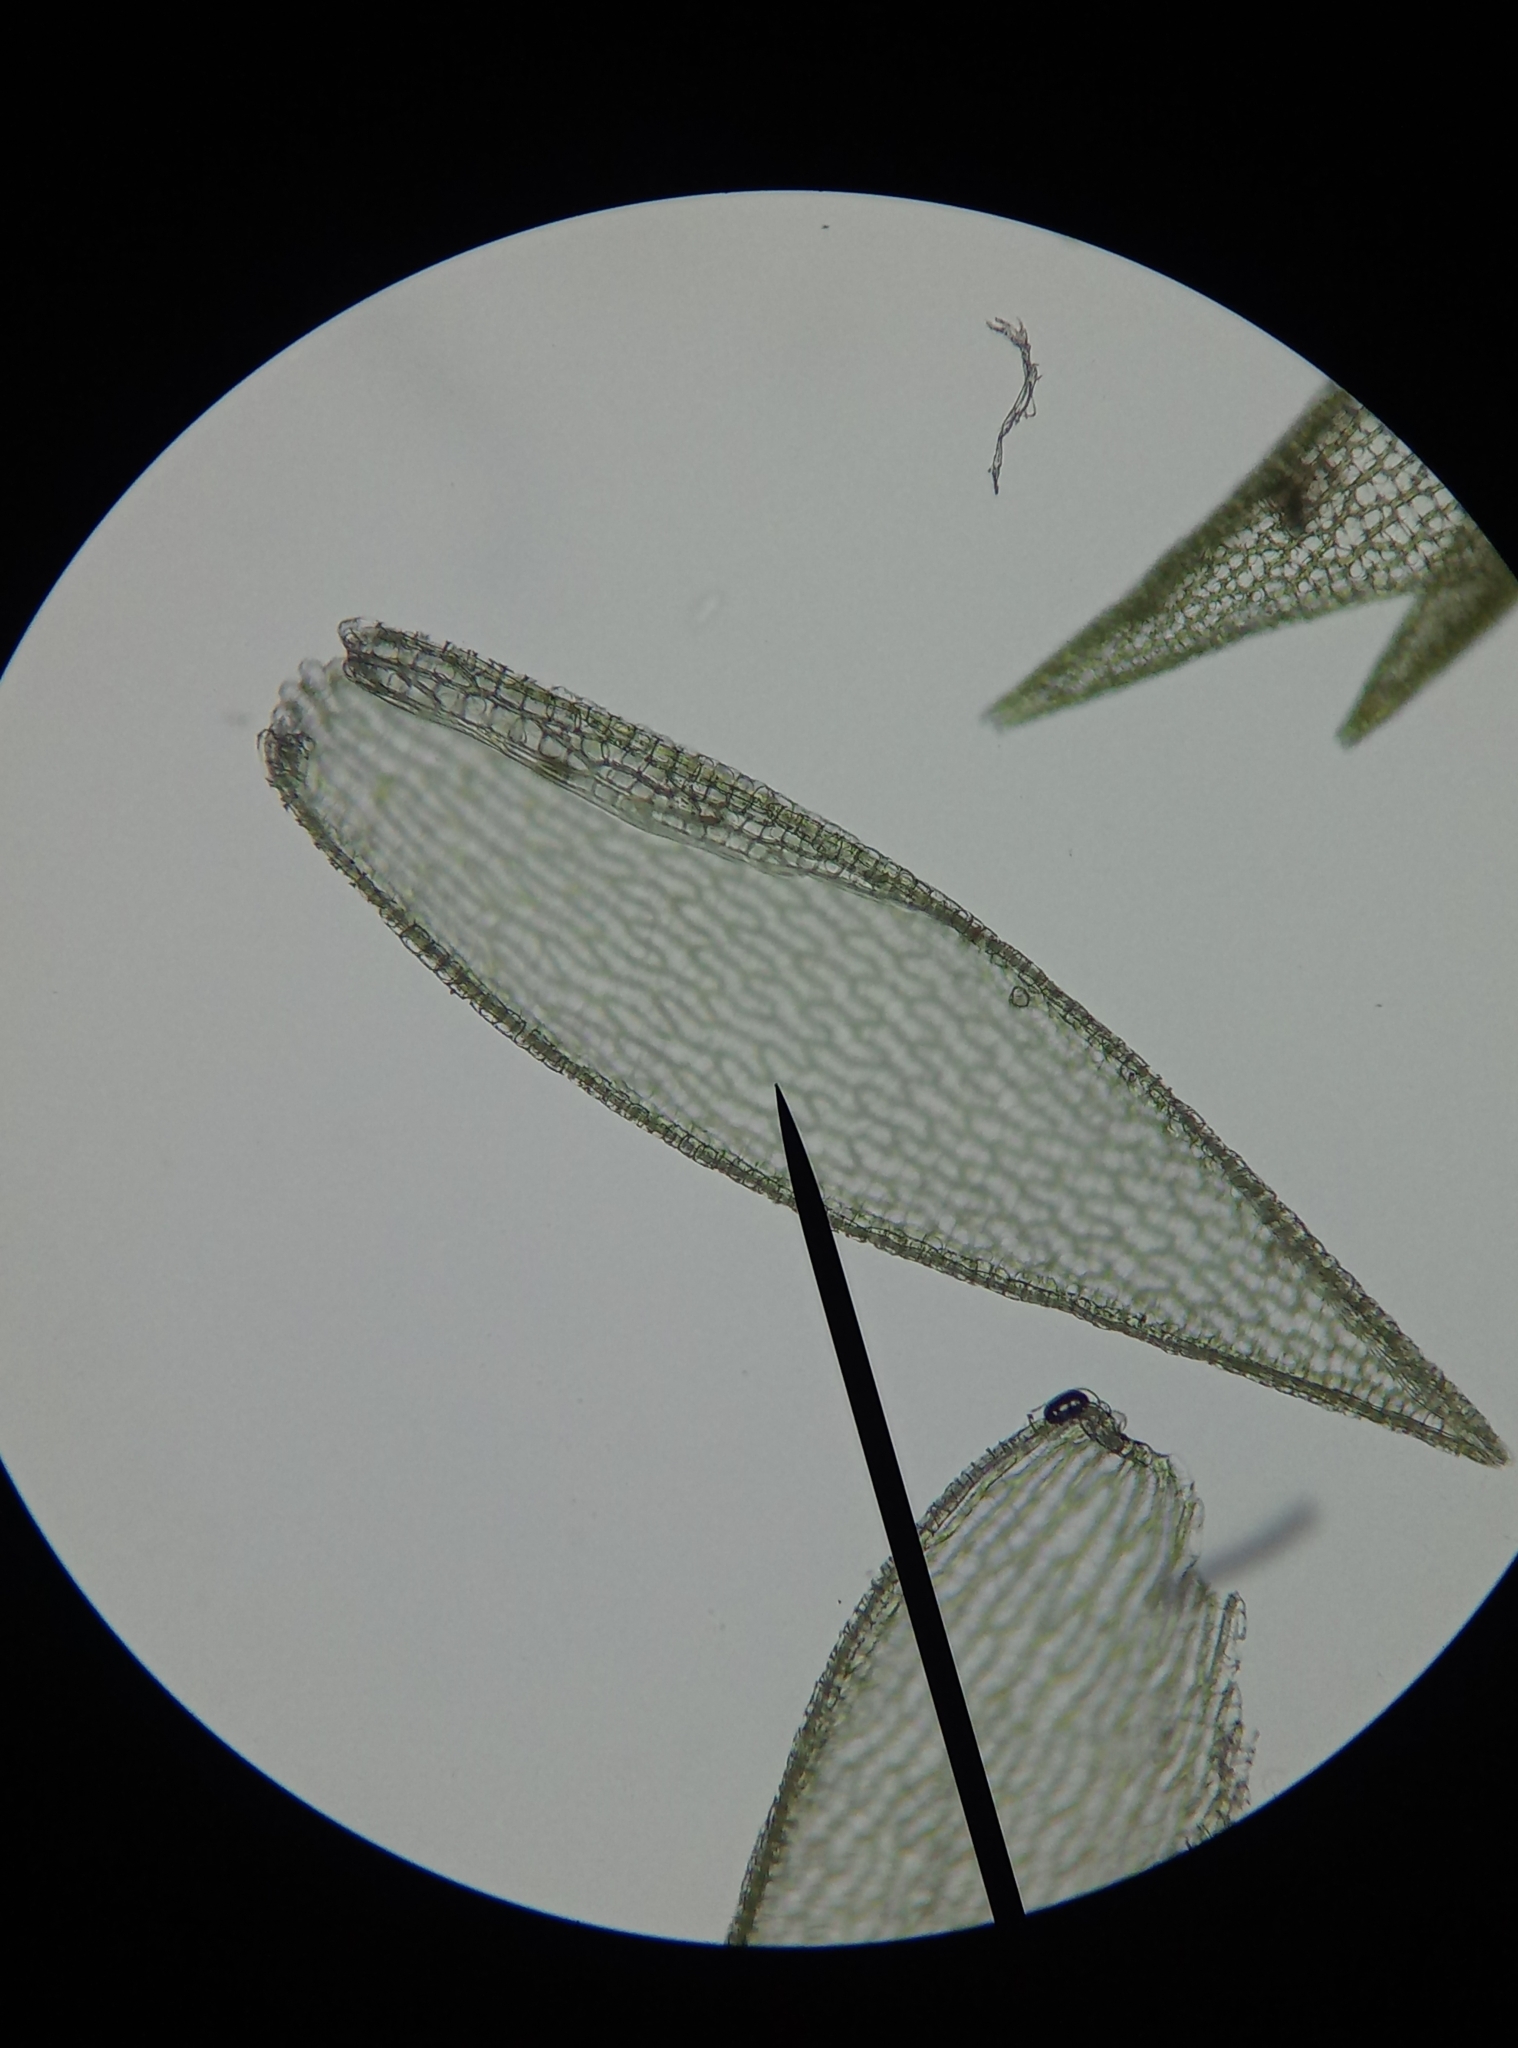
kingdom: Plantae
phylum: Bryophyta
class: Sphagnopsida
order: Sphagnales
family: Sphagnaceae
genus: Sphagnum
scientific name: Sphagnum fimbriatum
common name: Fringed peat moss
